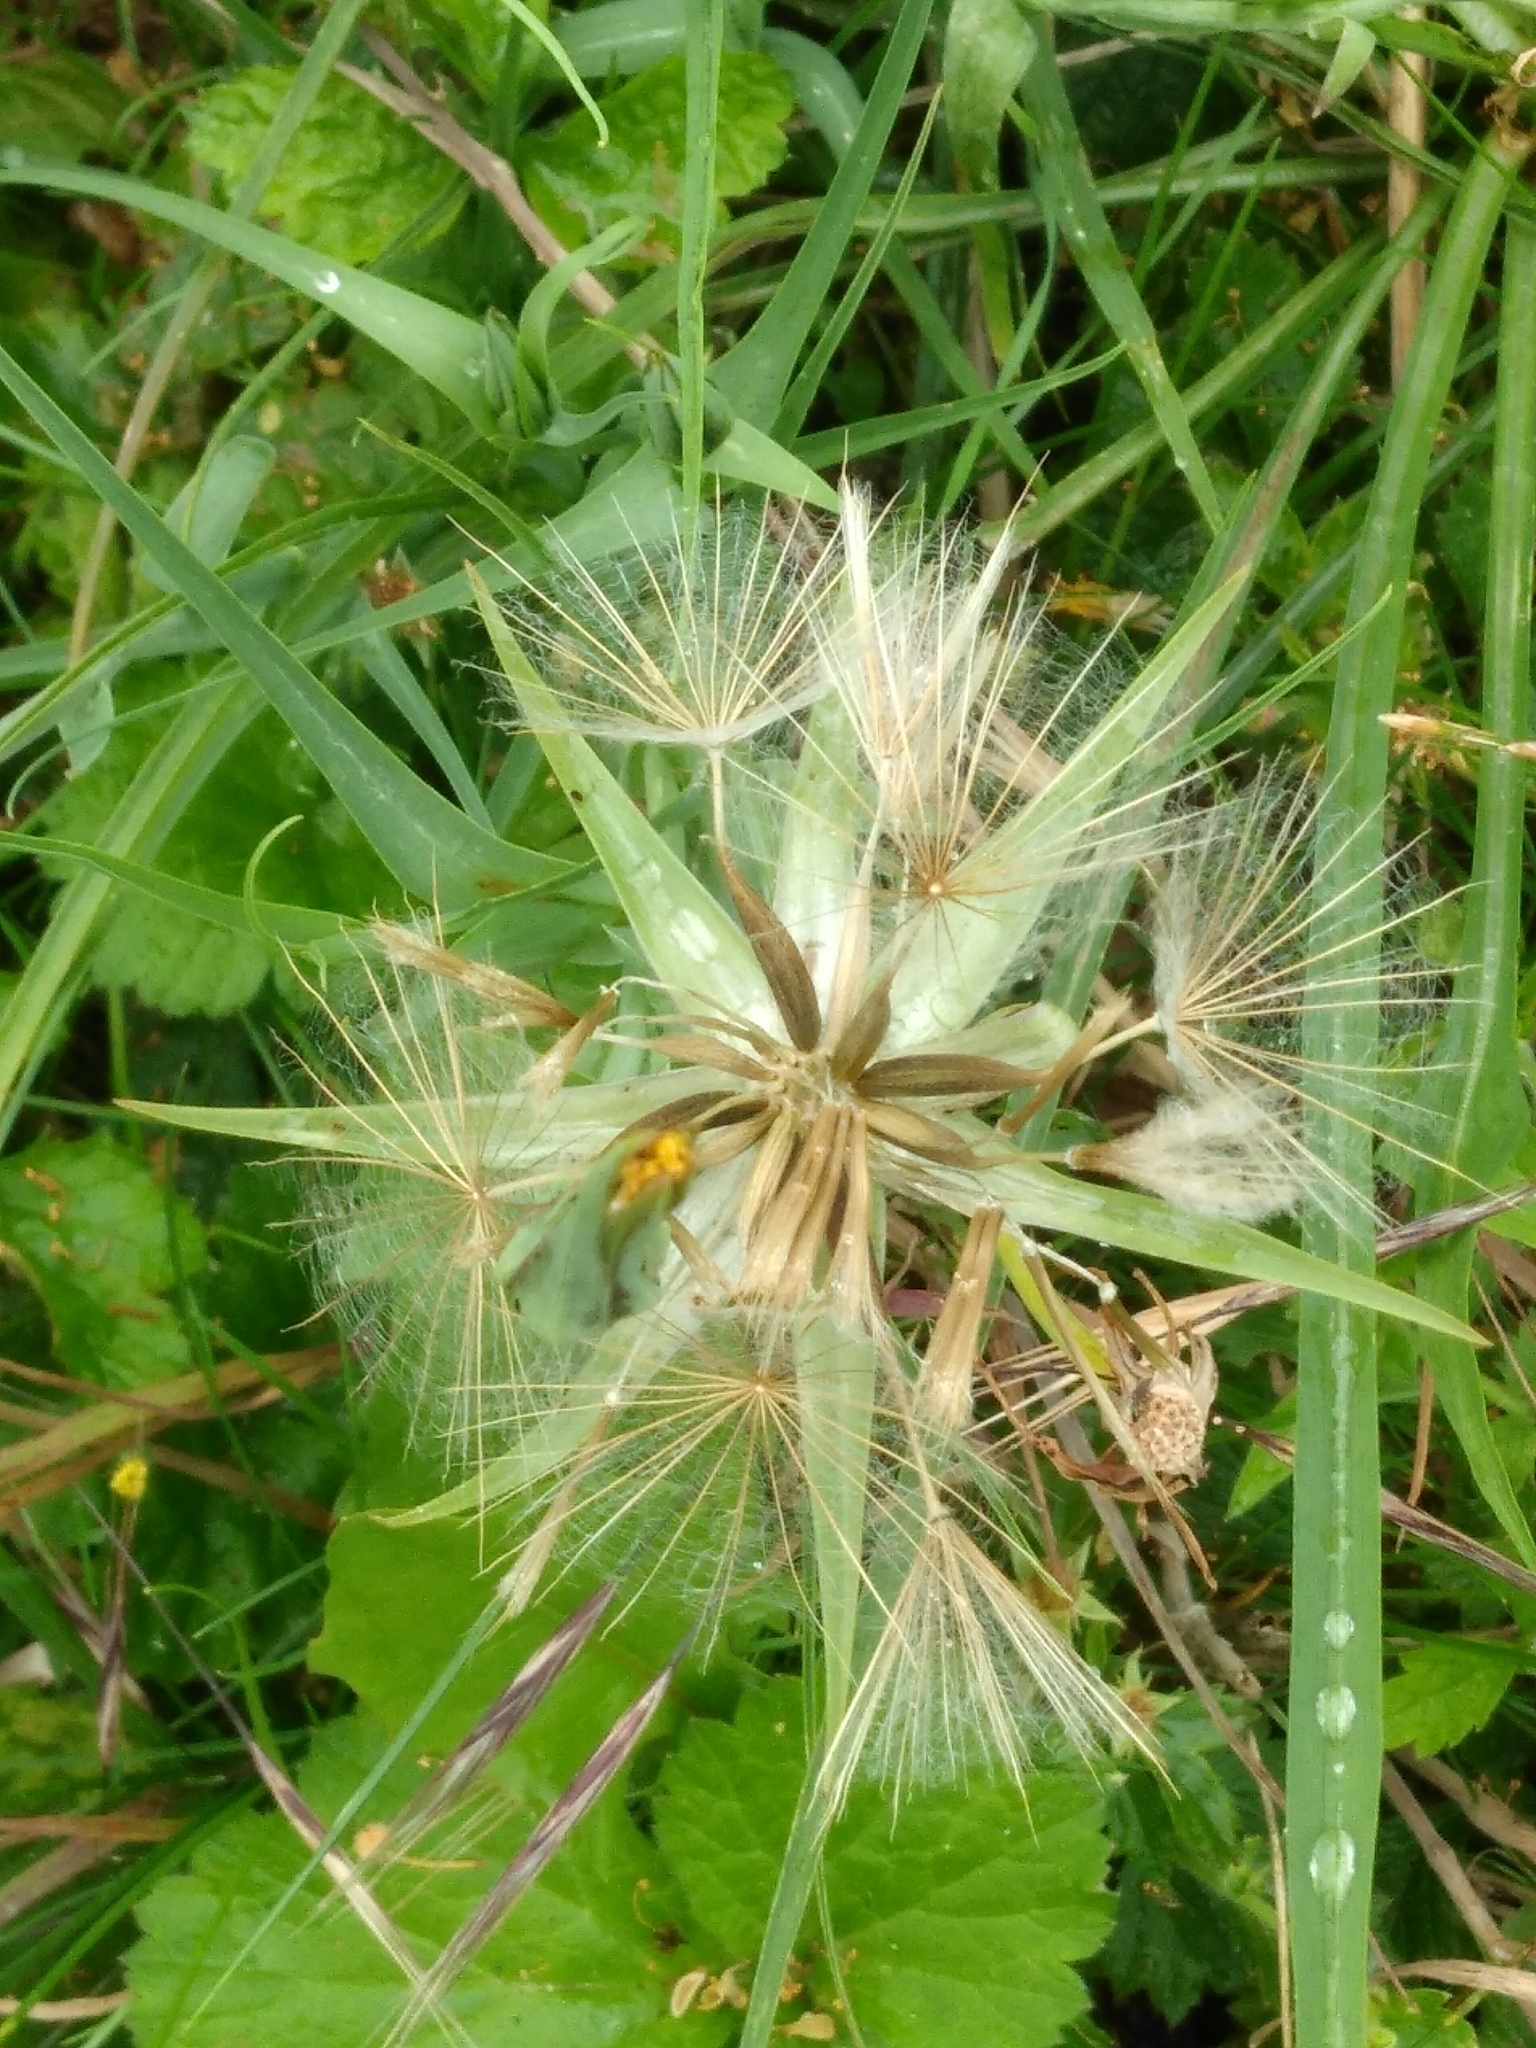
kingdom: Plantae
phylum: Tracheophyta
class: Magnoliopsida
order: Asterales
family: Asteraceae
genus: Tragopogon
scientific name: Tragopogon pratensis
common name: Goat's-beard
